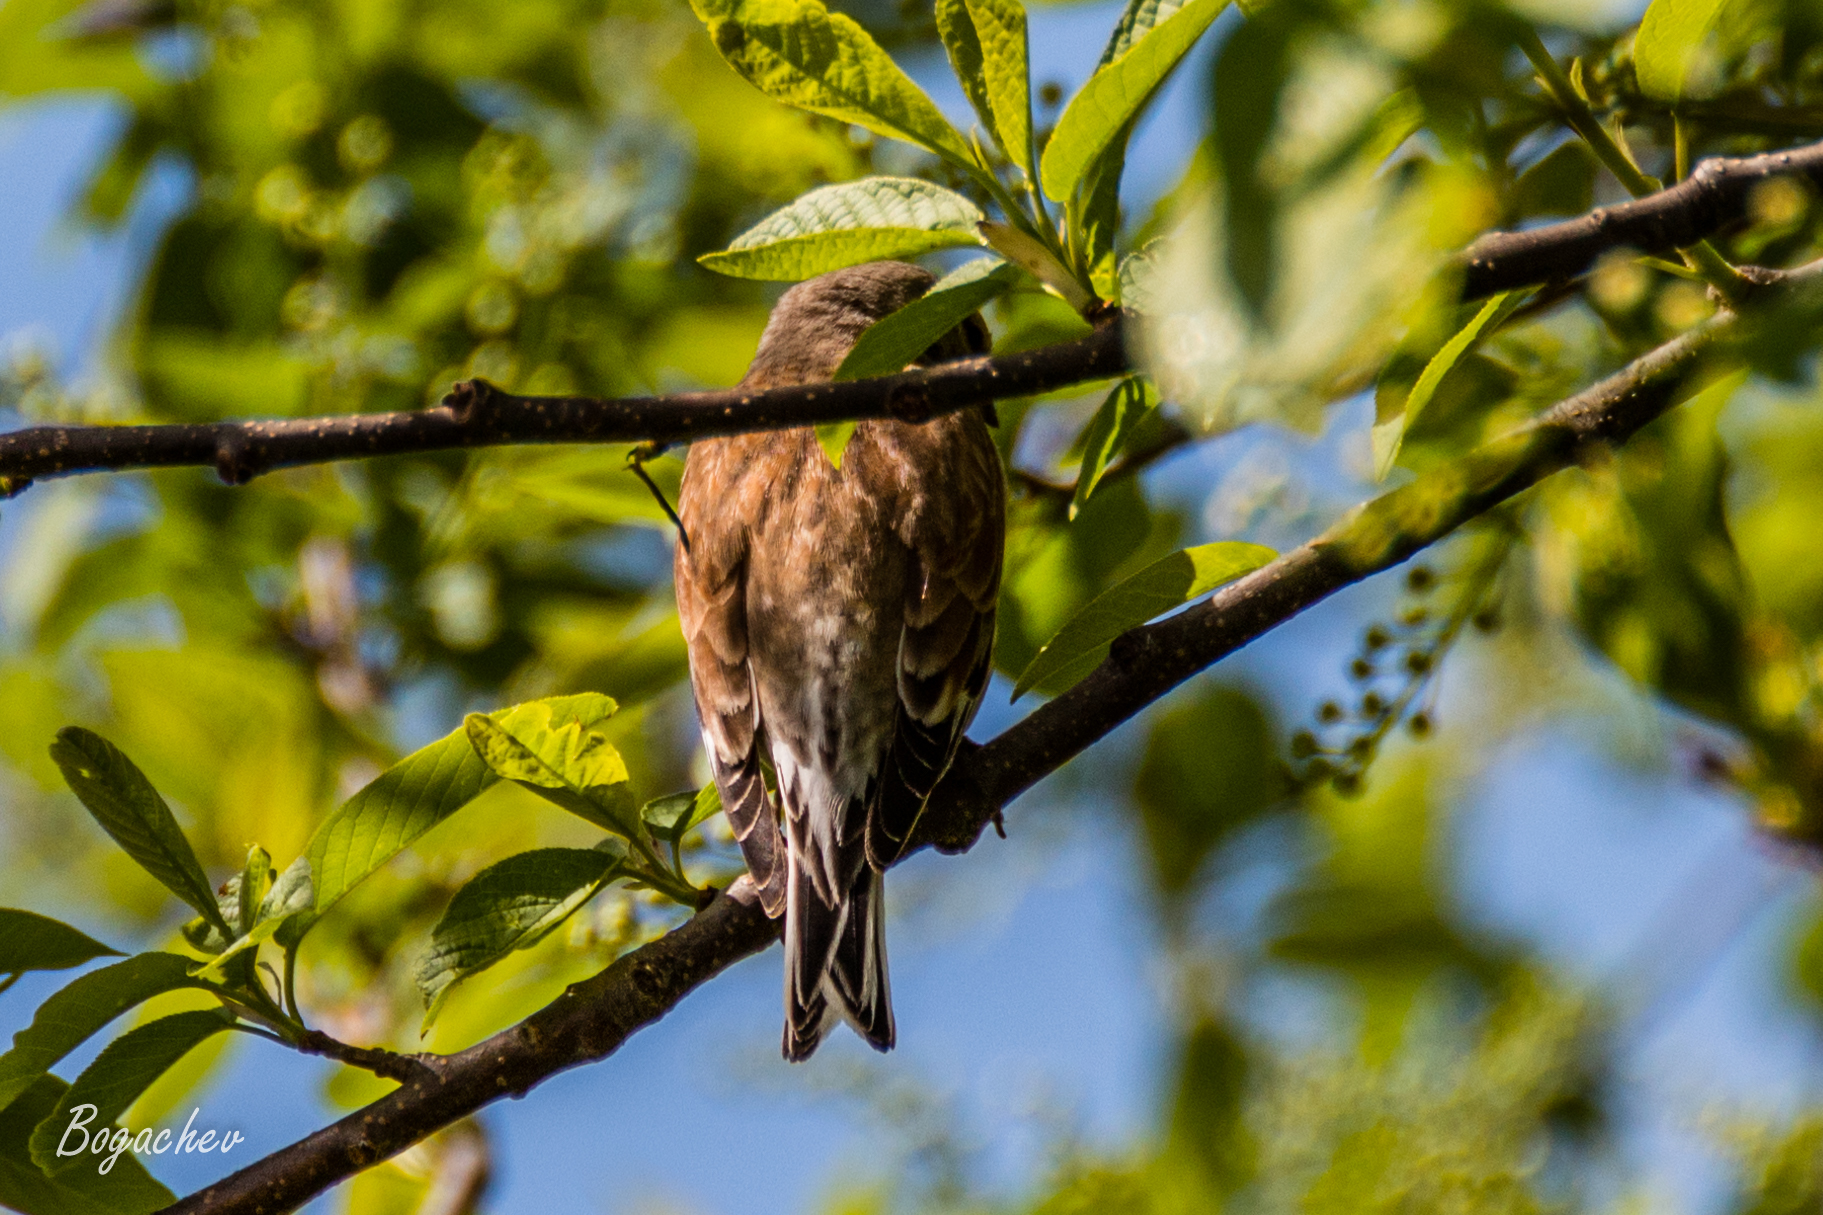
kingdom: Animalia
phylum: Chordata
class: Aves
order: Passeriformes
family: Fringillidae
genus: Linaria
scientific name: Linaria cannabina
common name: Common linnet
